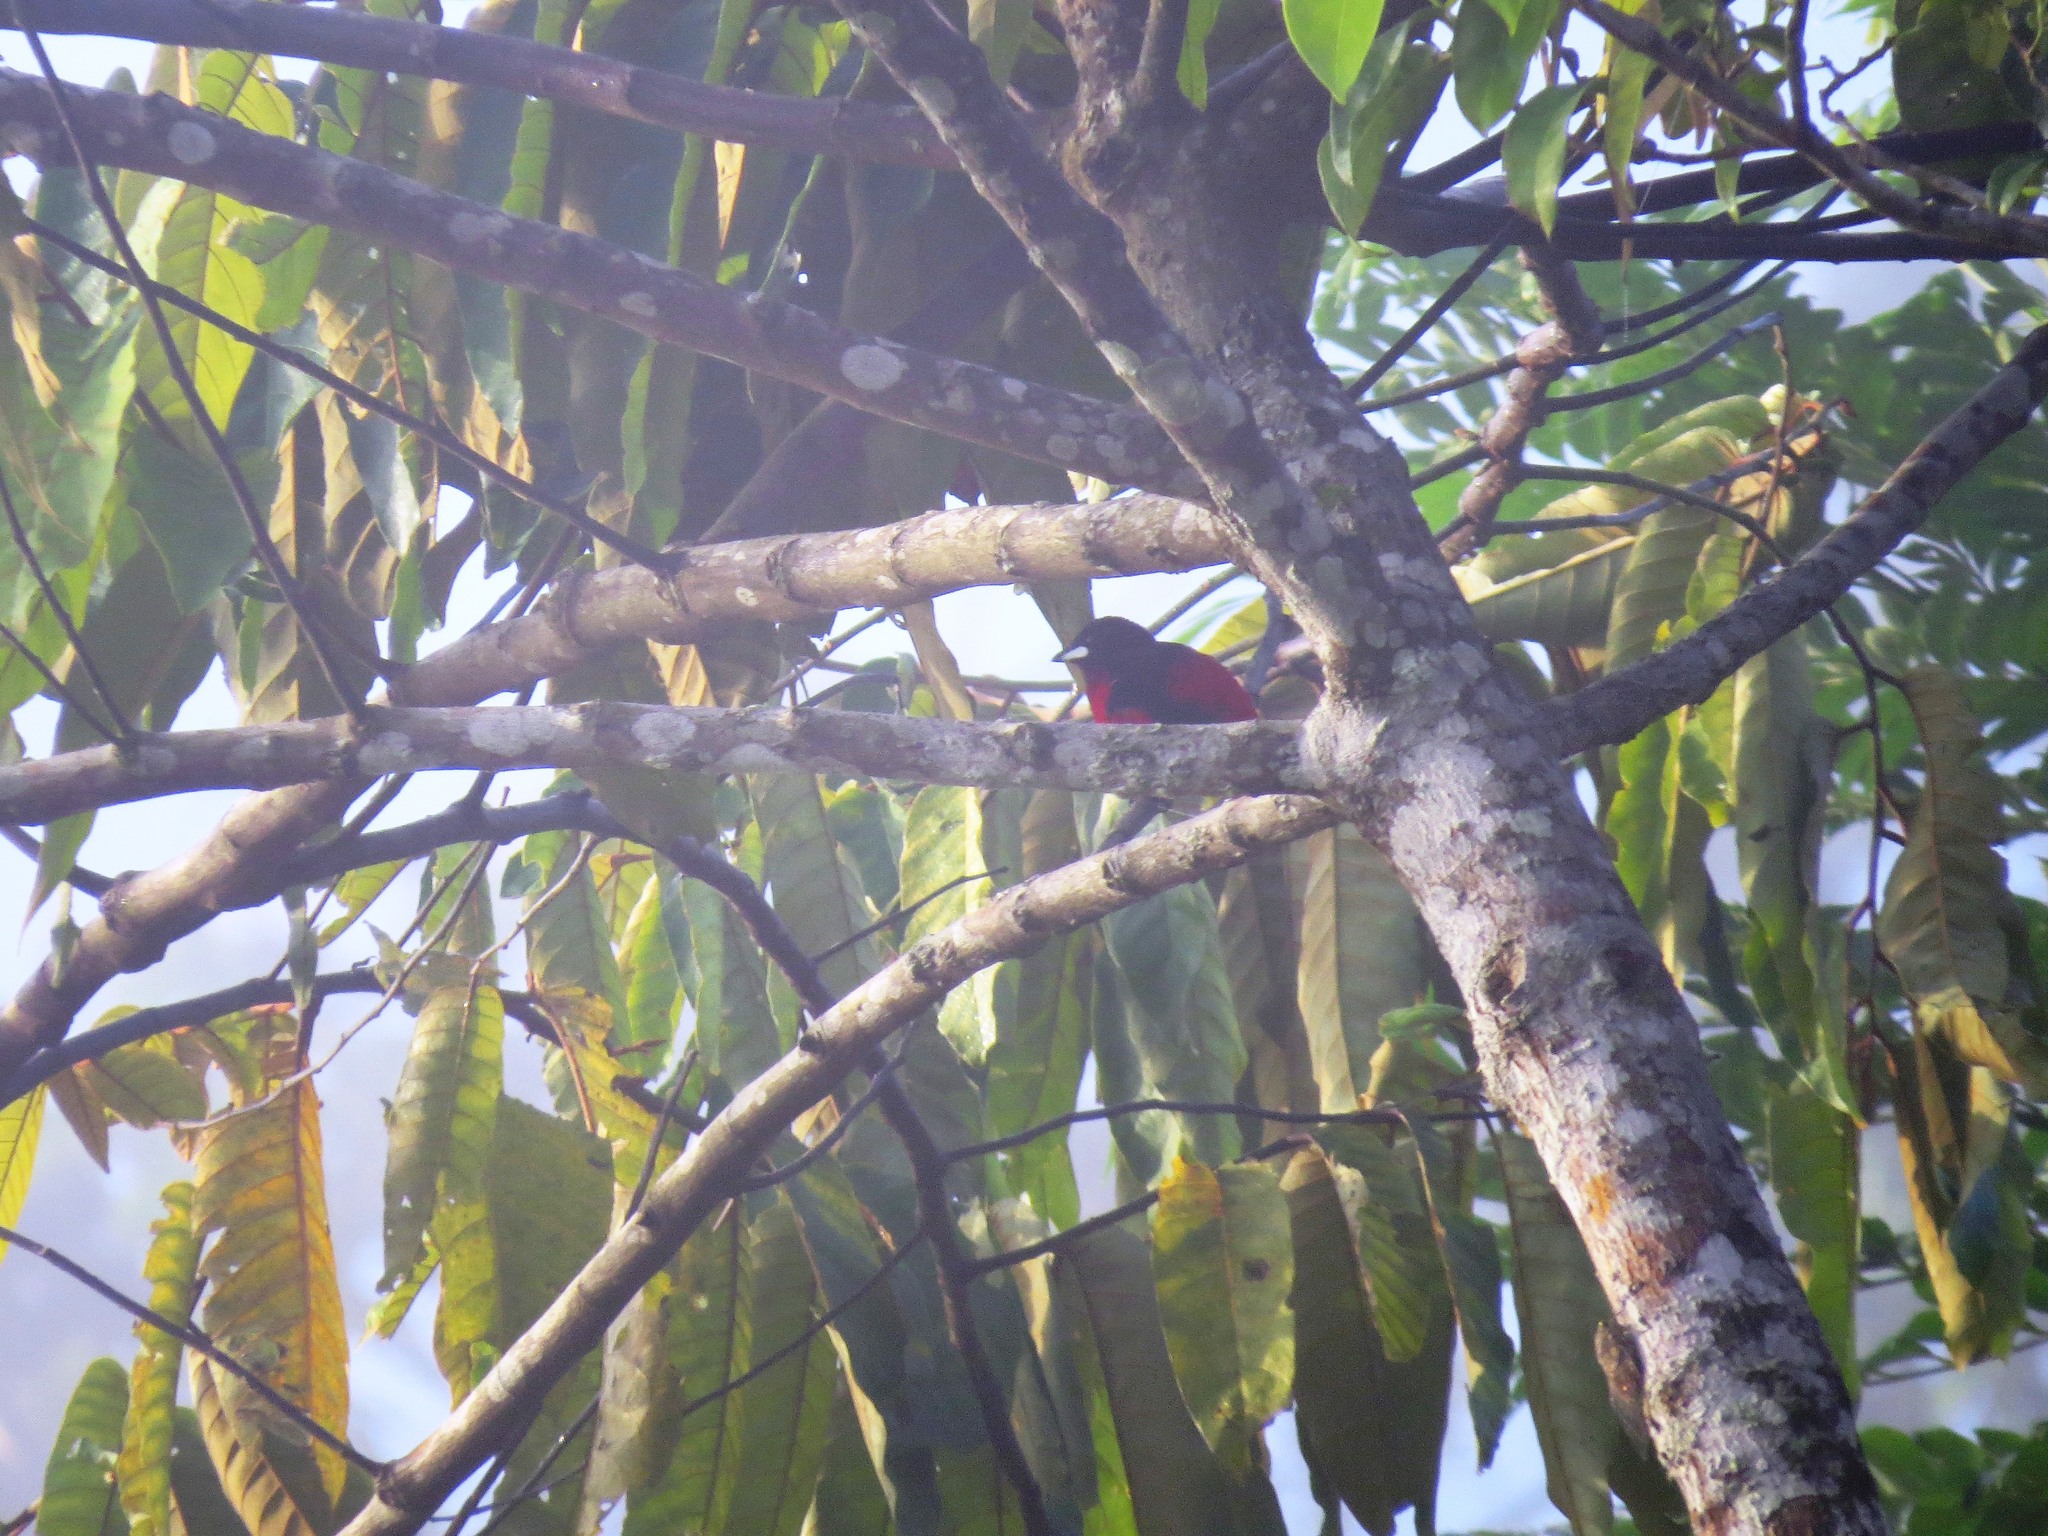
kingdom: Animalia
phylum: Chordata
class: Aves
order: Passeriformes
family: Thraupidae
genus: Ramphocelus
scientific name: Ramphocelus dimidiatus
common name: Crimson-backed tanager
